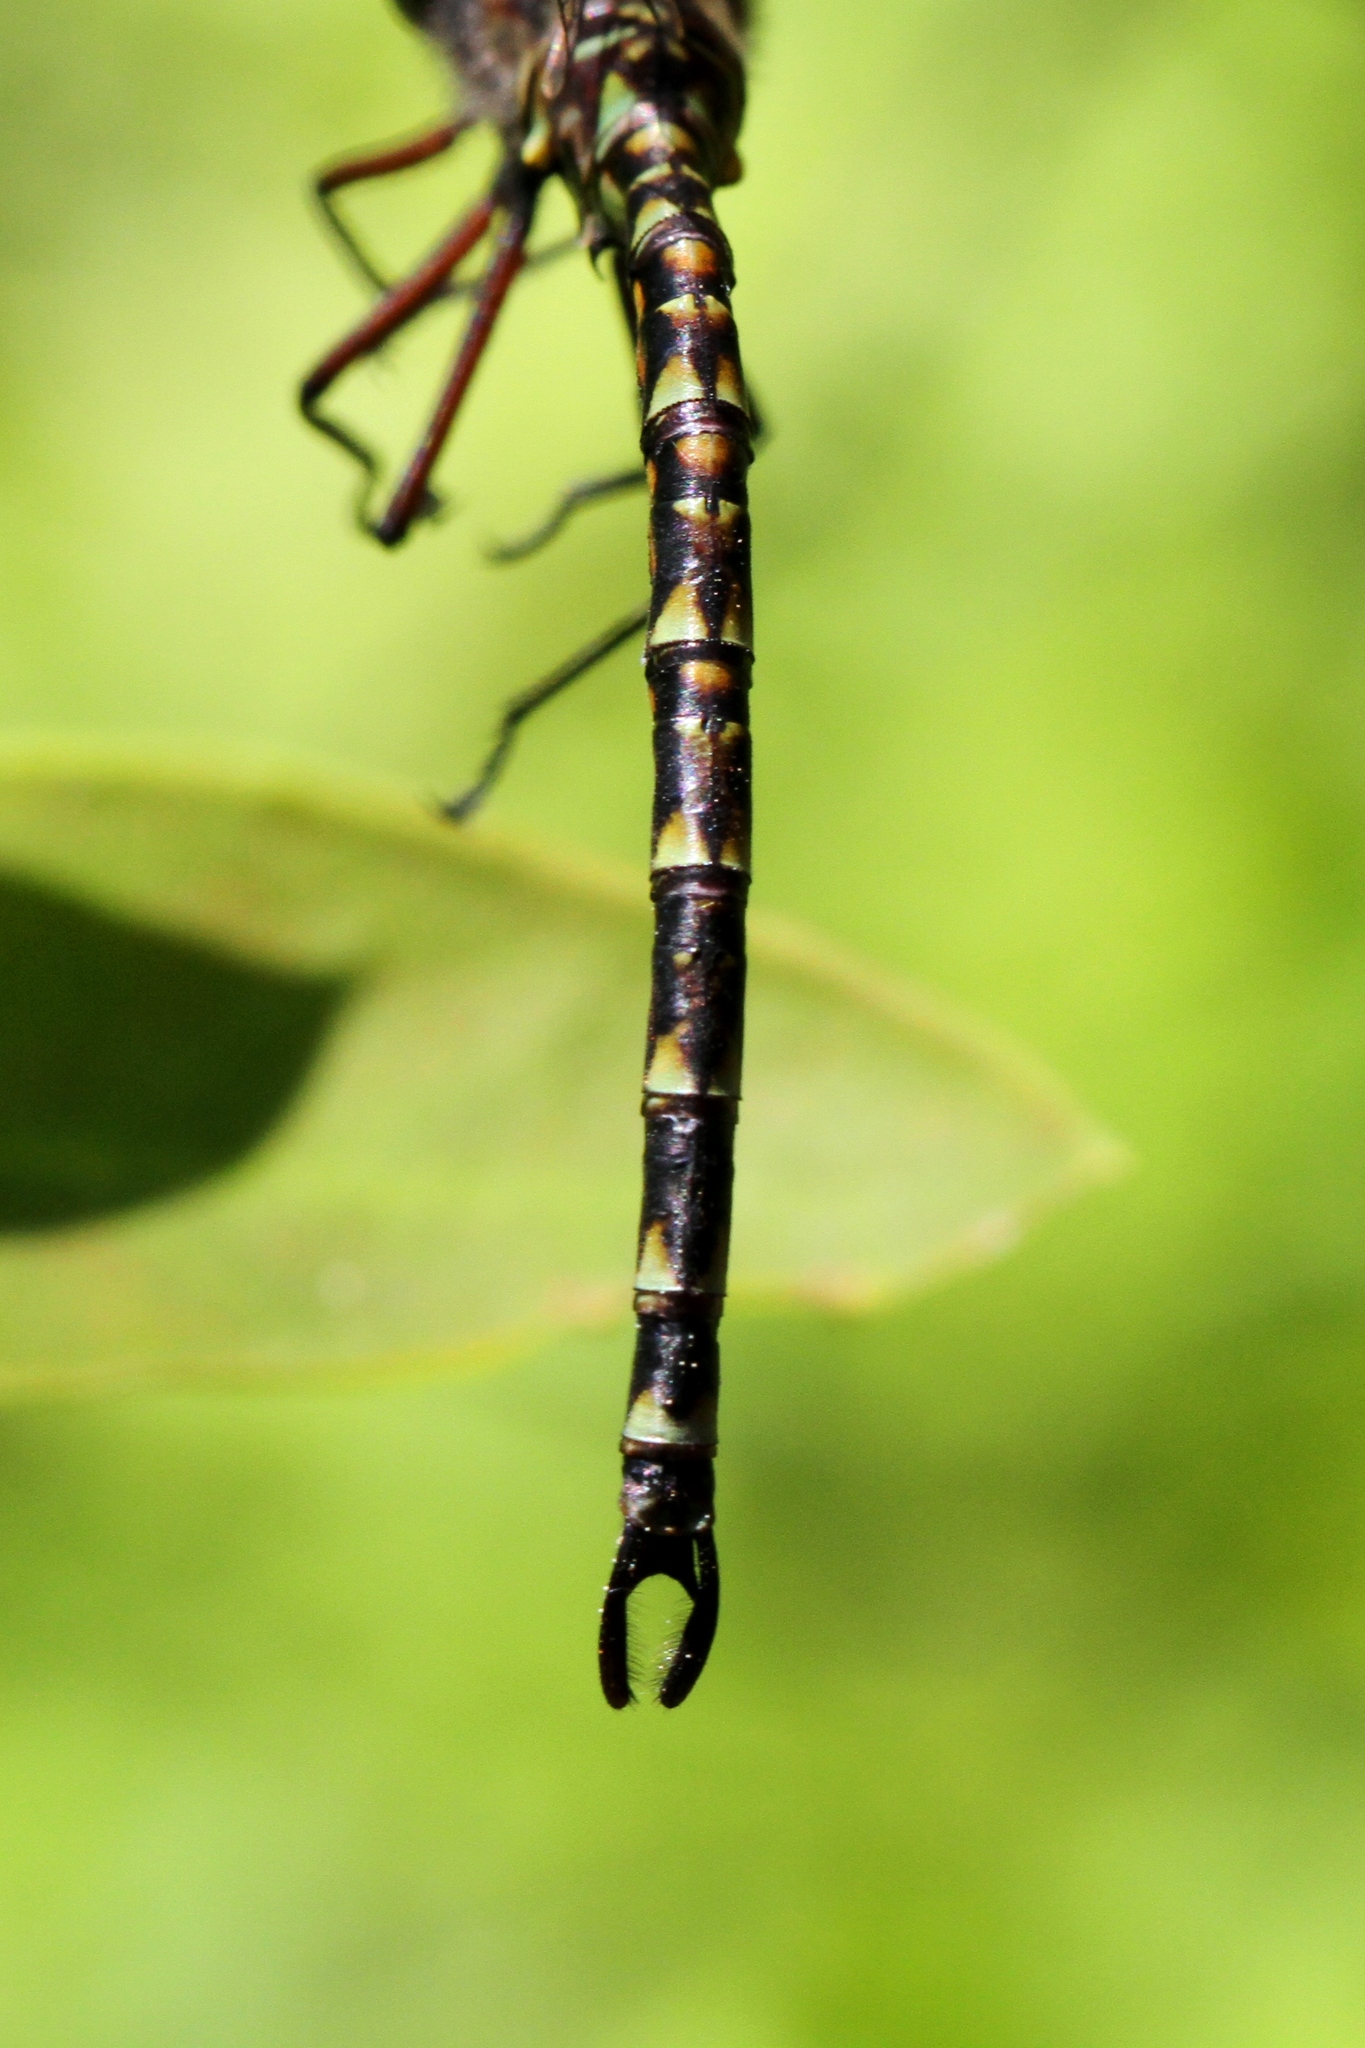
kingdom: Animalia
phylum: Arthropoda
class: Insecta
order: Odonata
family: Aeshnidae
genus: Gomphaeschna
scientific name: Gomphaeschna furcillata
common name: Harlequin darner
